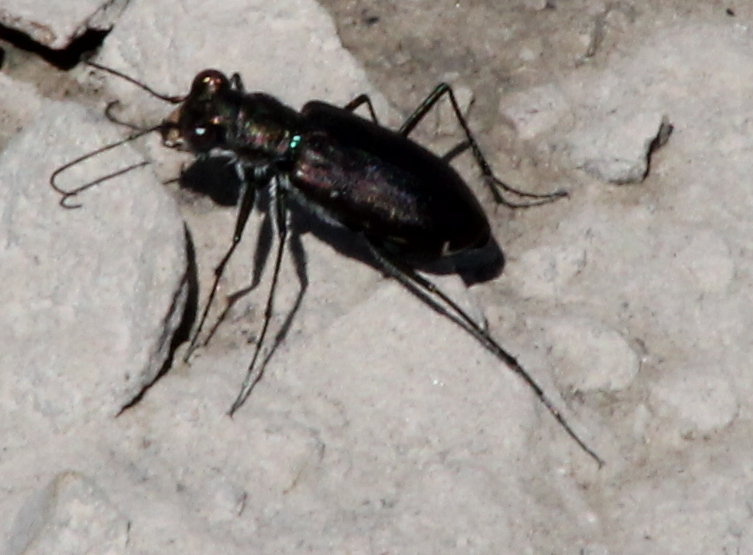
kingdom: Animalia
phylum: Arthropoda
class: Insecta
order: Coleoptera
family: Carabidae
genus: Cicindela
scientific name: Cicindela punctulata
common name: Punctured tiger beetle
